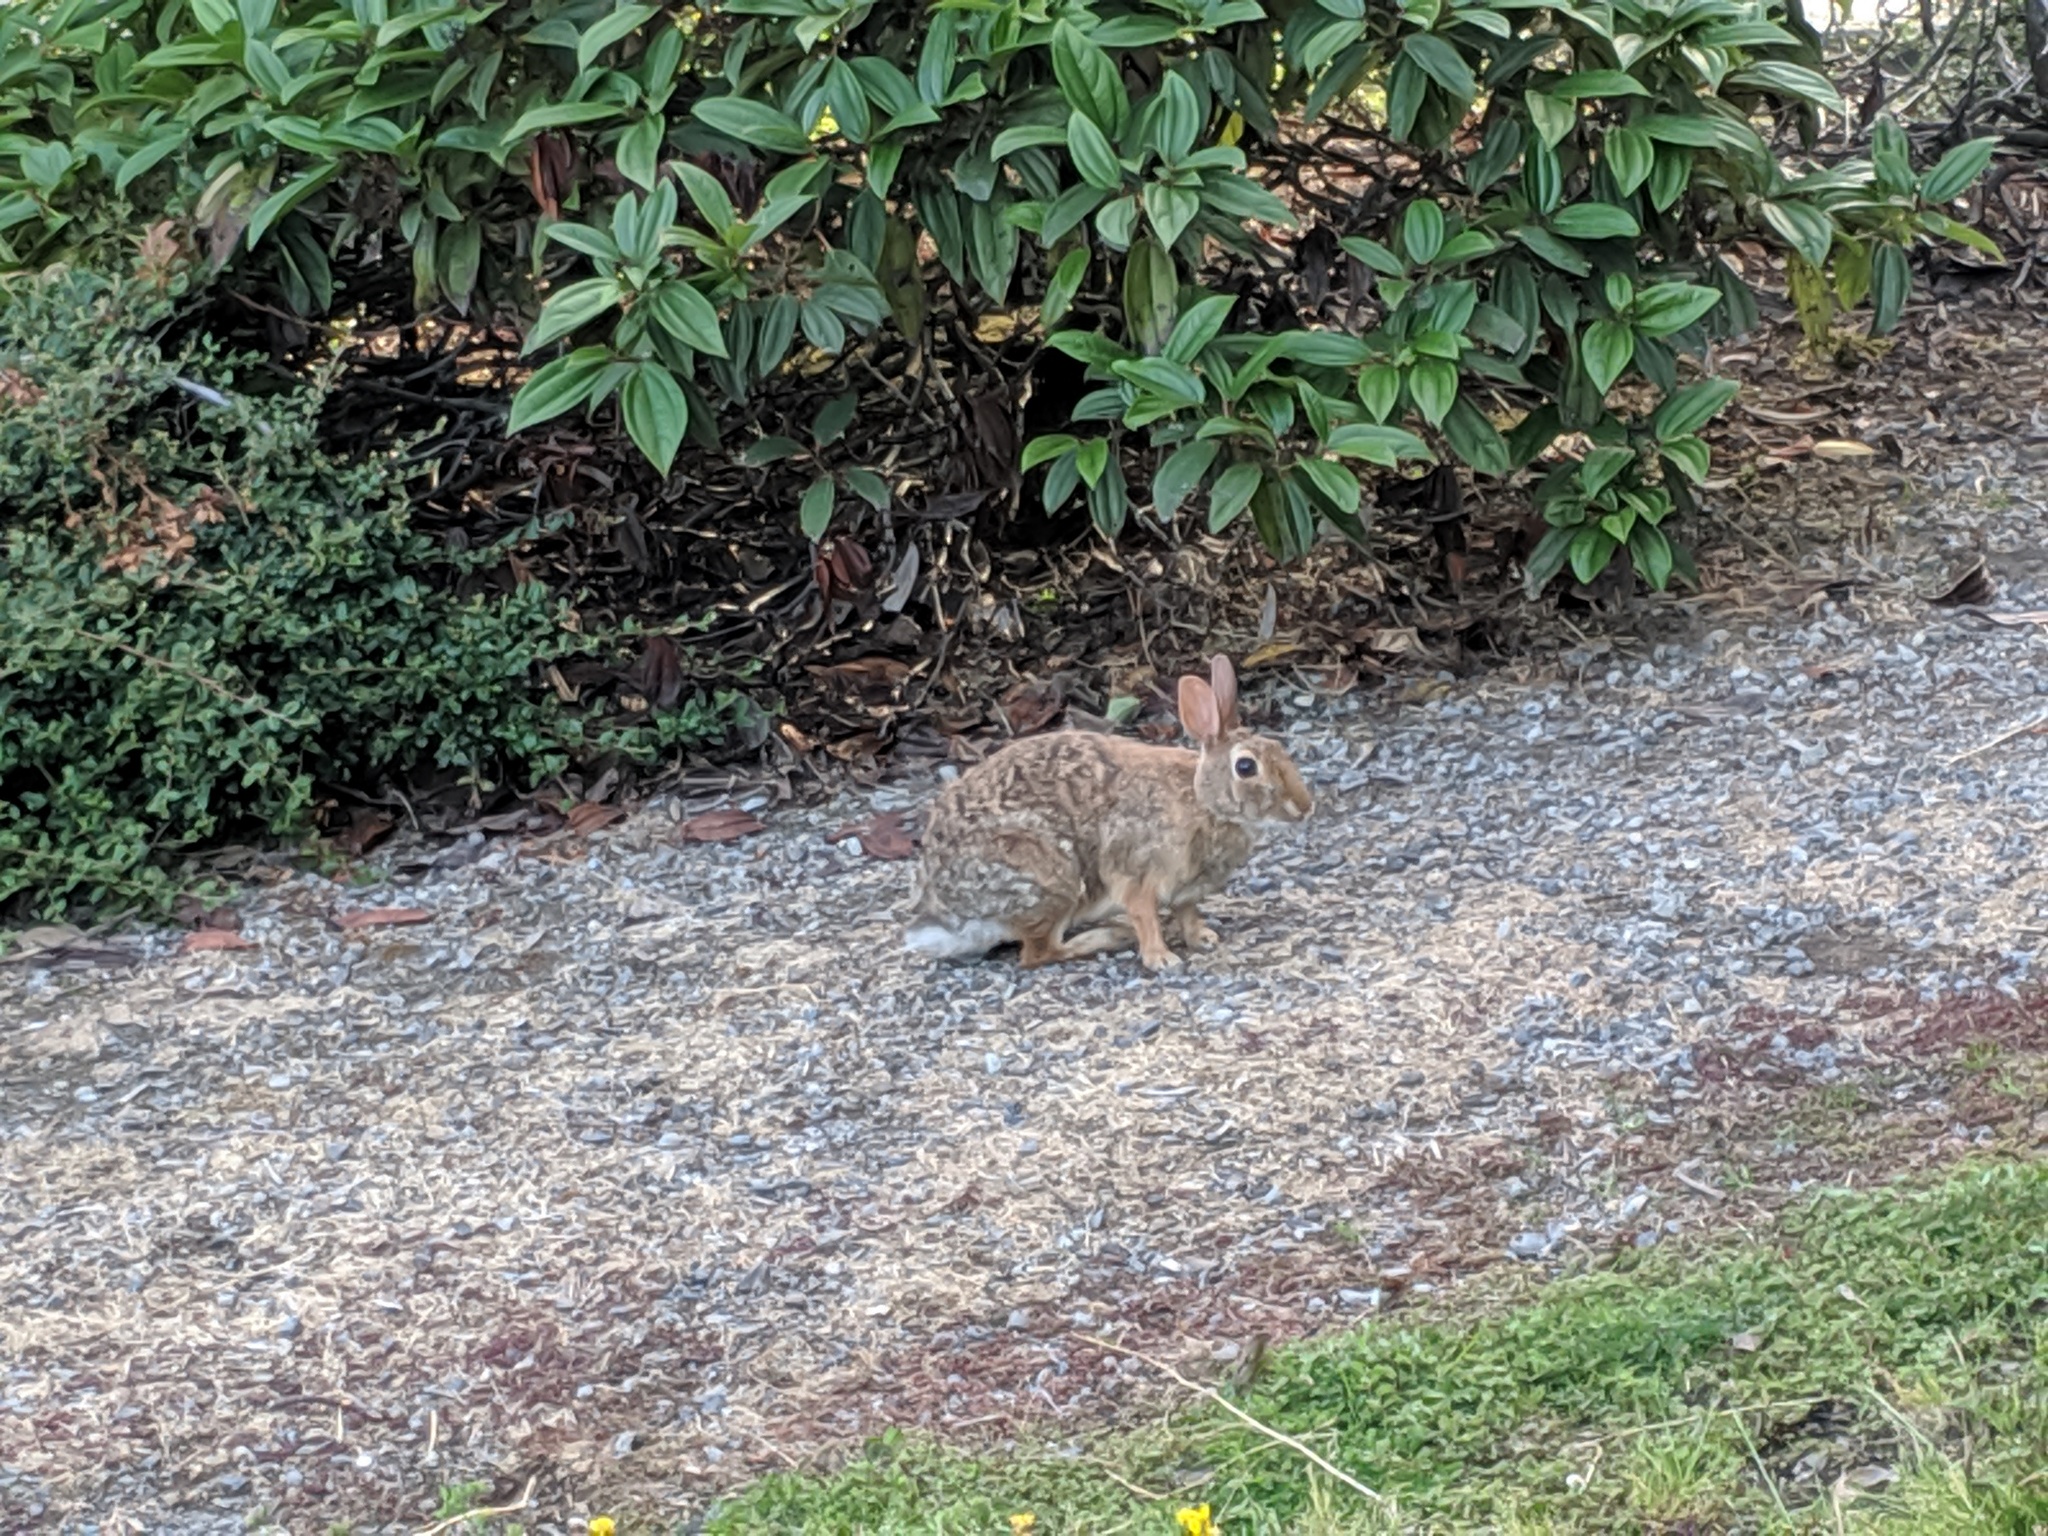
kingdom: Animalia
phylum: Chordata
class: Mammalia
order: Lagomorpha
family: Leporidae
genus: Sylvilagus
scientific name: Sylvilagus floridanus
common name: Eastern cottontail
